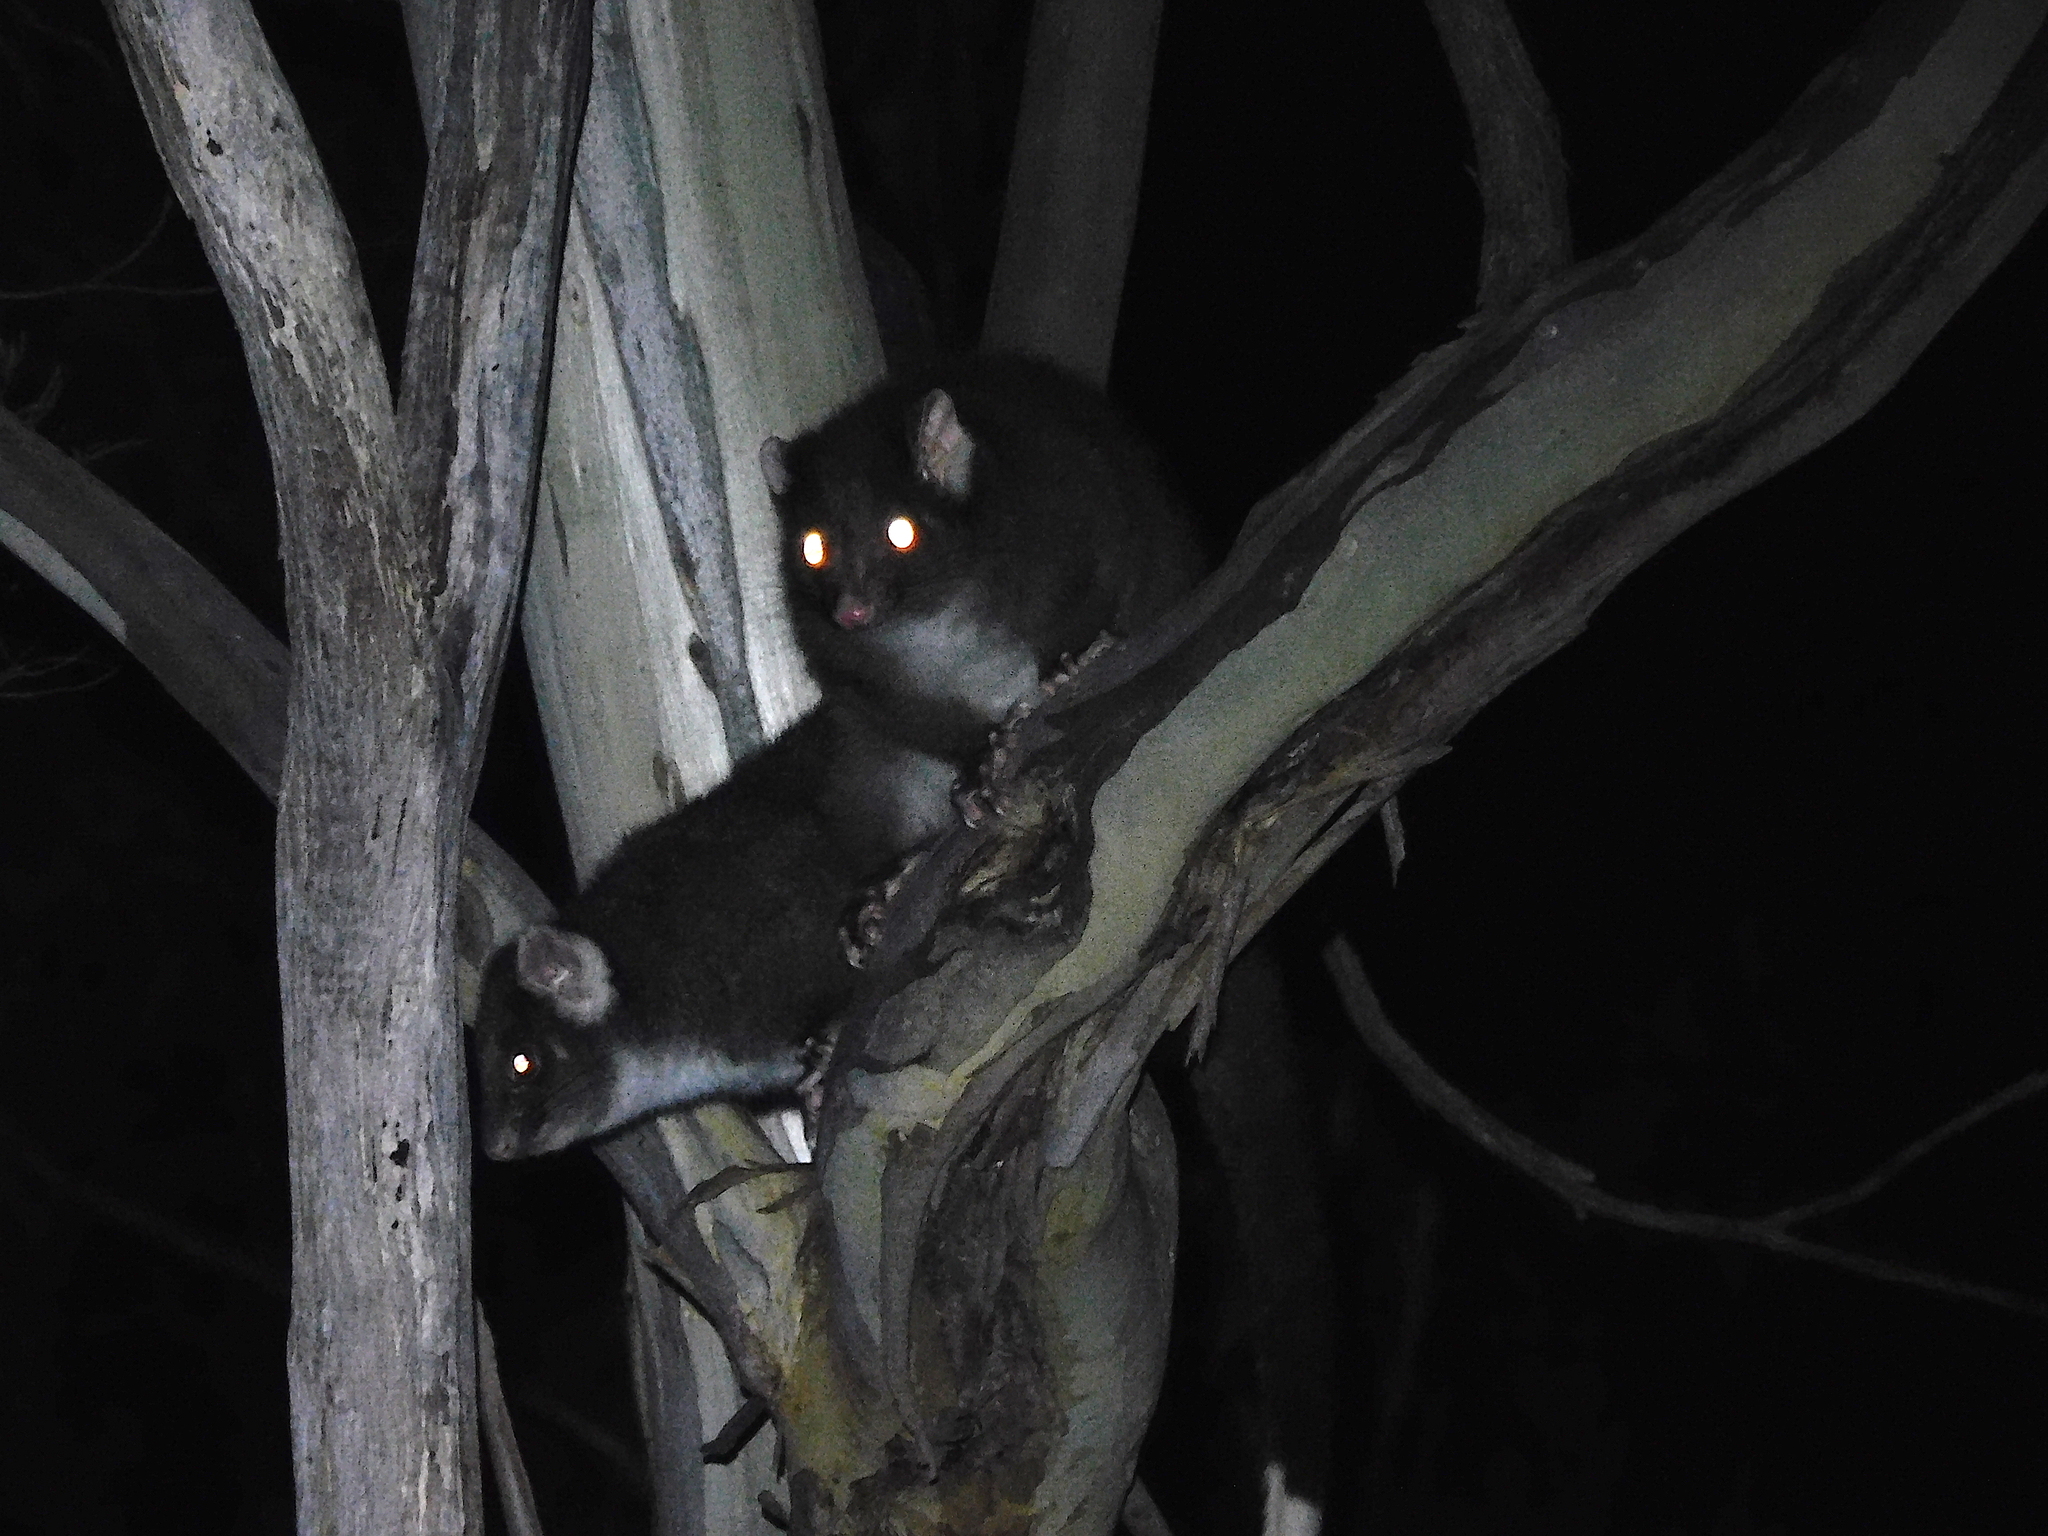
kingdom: Animalia
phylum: Chordata
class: Mammalia
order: Diprotodontia
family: Pseudocheiridae
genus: Pseudocheirus
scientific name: Pseudocheirus peregrinus
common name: Common ringtail possum
